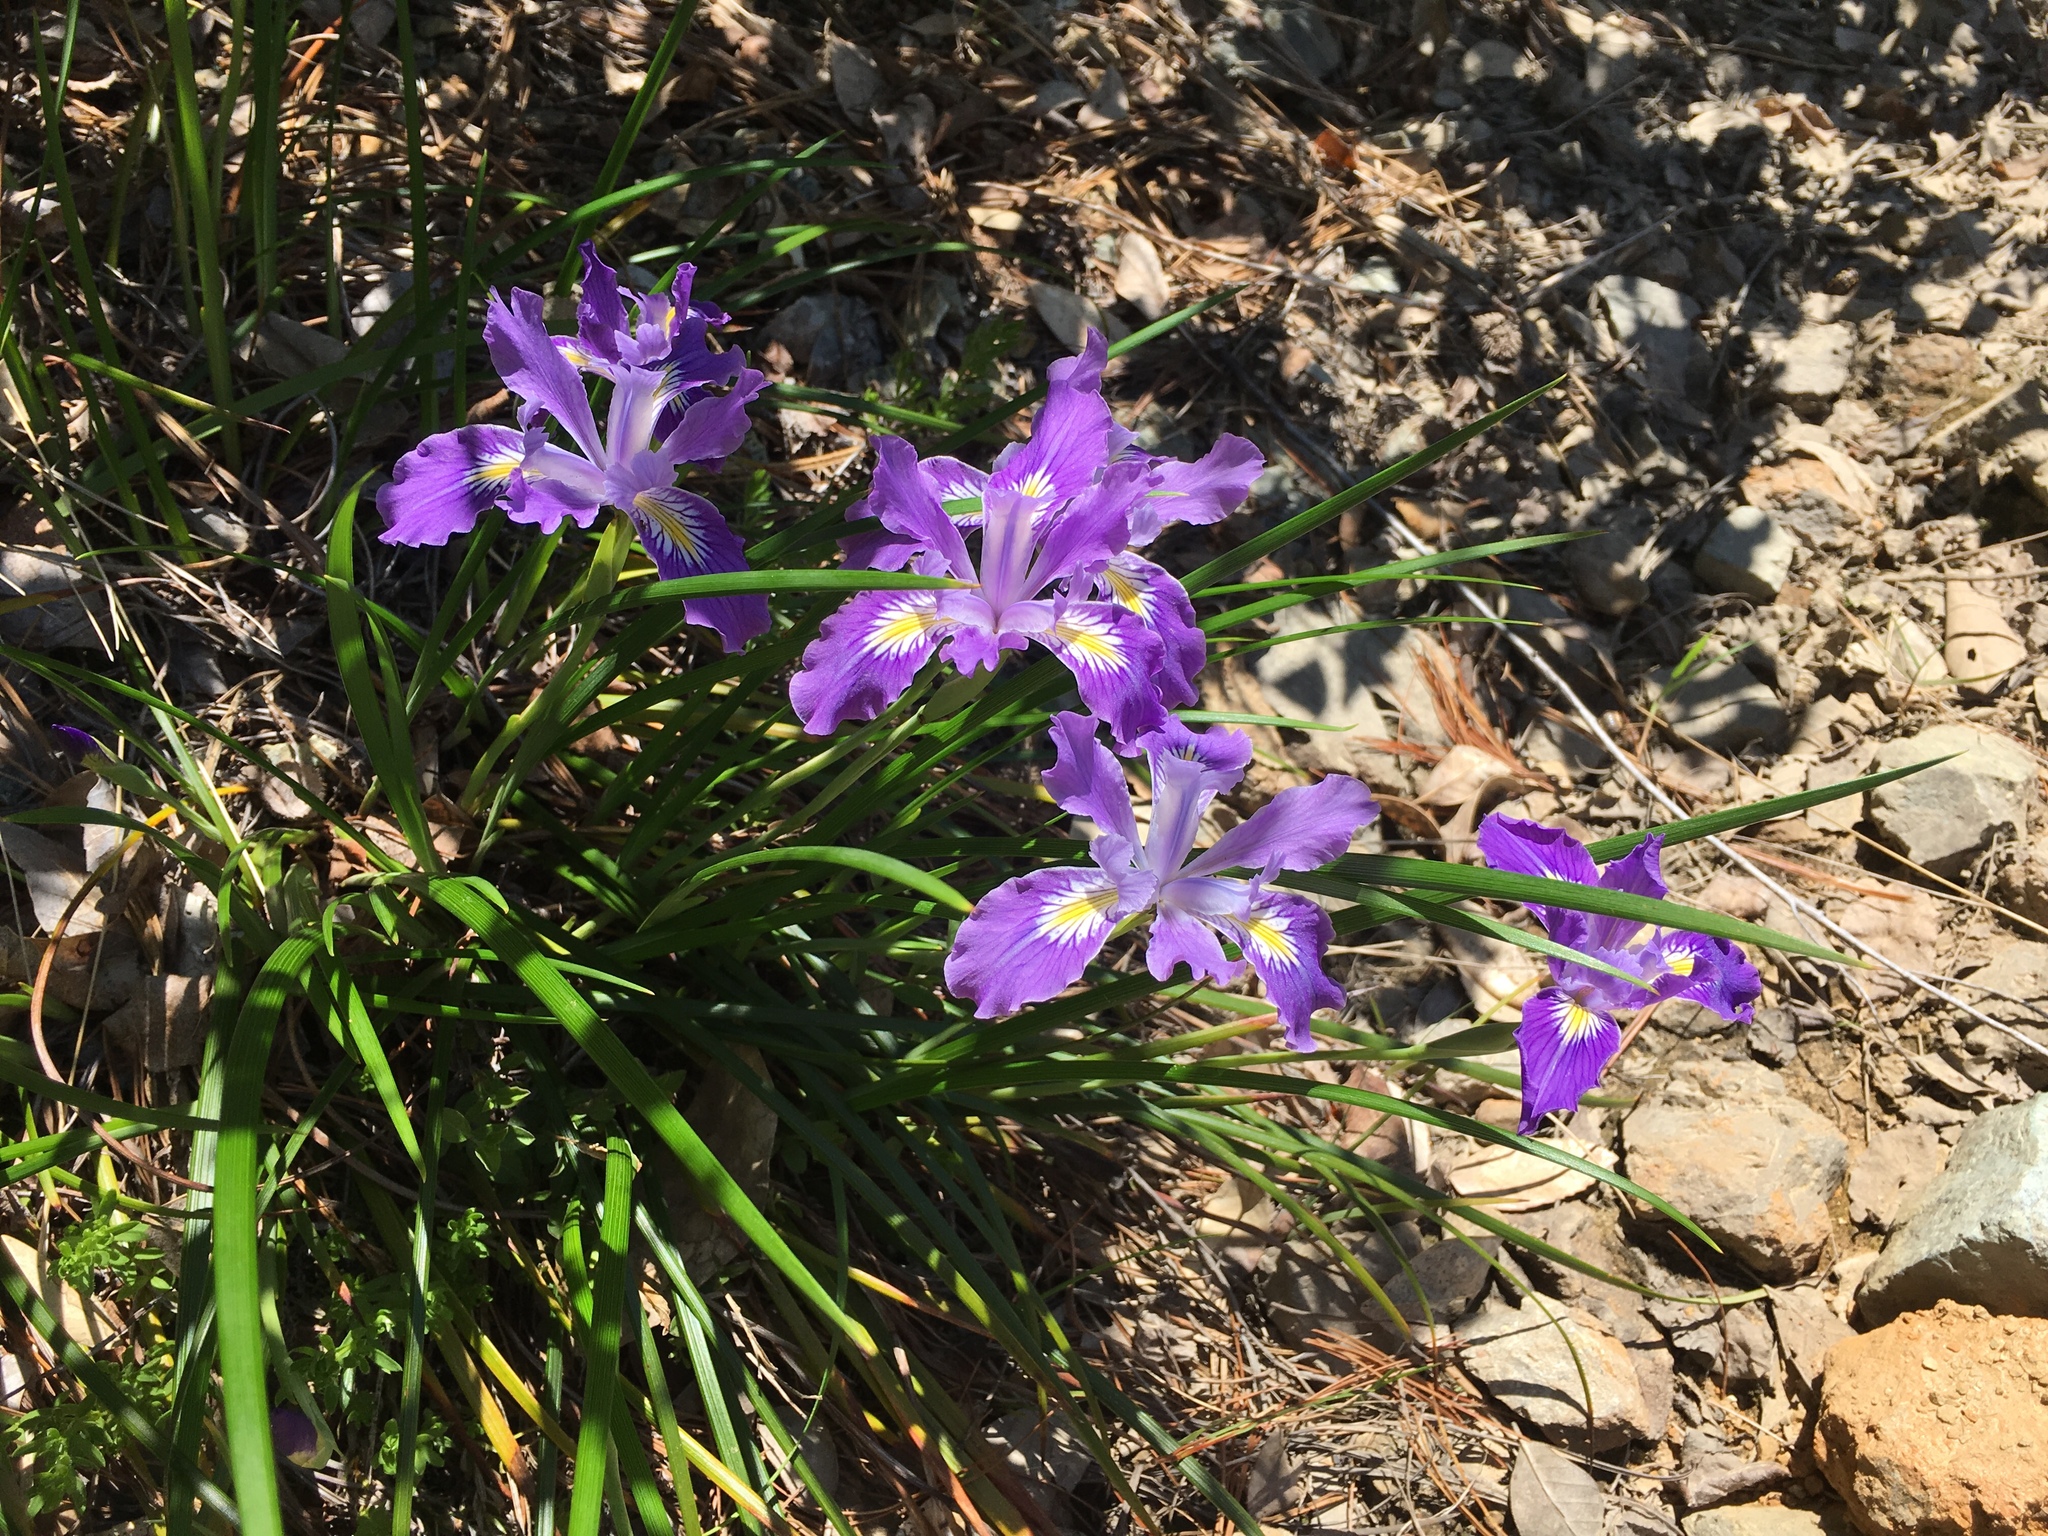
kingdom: Plantae
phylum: Tracheophyta
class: Liliopsida
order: Asparagales
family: Iridaceae
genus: Iris
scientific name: Iris thompsonii
